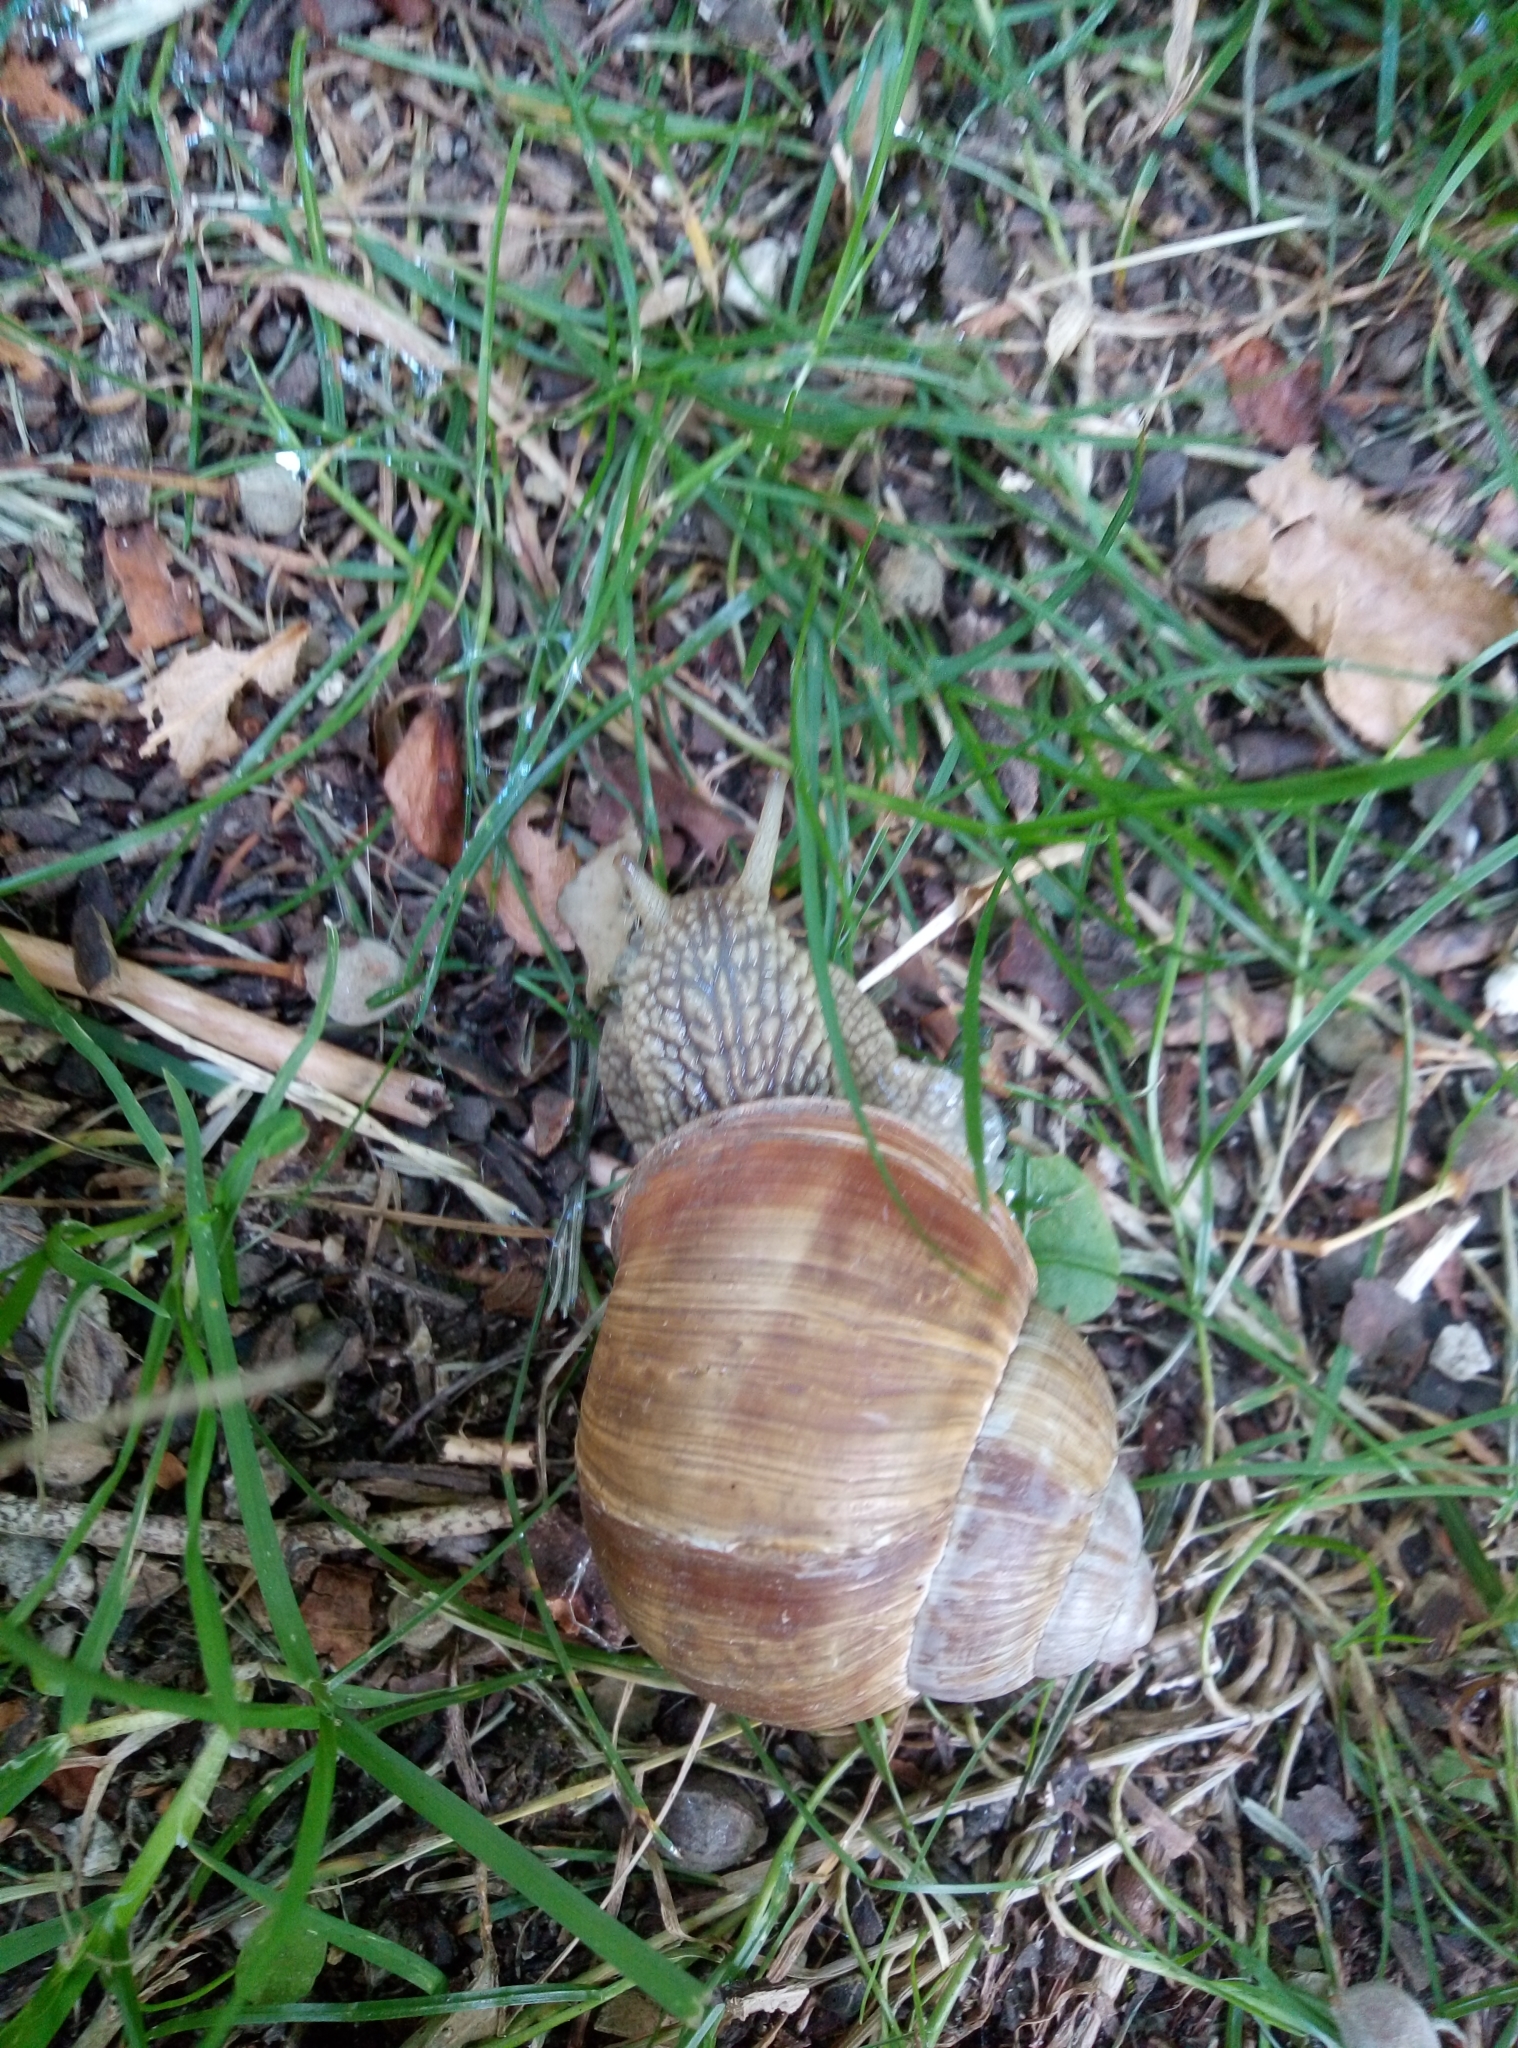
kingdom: Animalia
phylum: Mollusca
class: Gastropoda
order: Stylommatophora
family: Helicidae
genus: Helix
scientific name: Helix pomatia
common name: Roman snail
